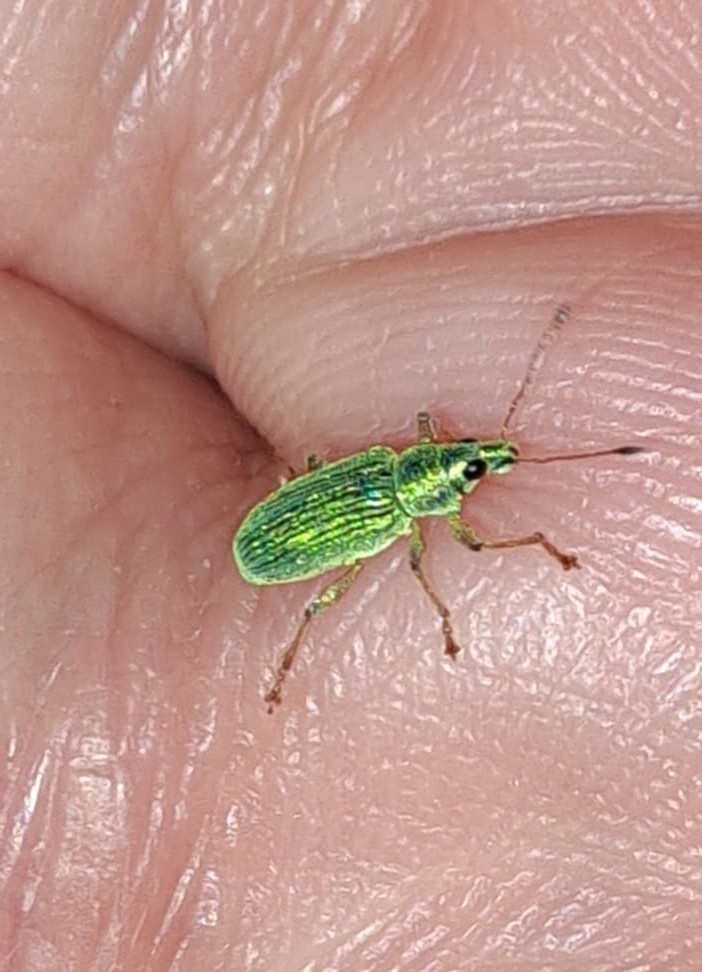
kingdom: Animalia
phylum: Arthropoda
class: Insecta
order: Coleoptera
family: Curculionidae
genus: Polydrusus
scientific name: Polydrusus formosus
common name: Weevil
